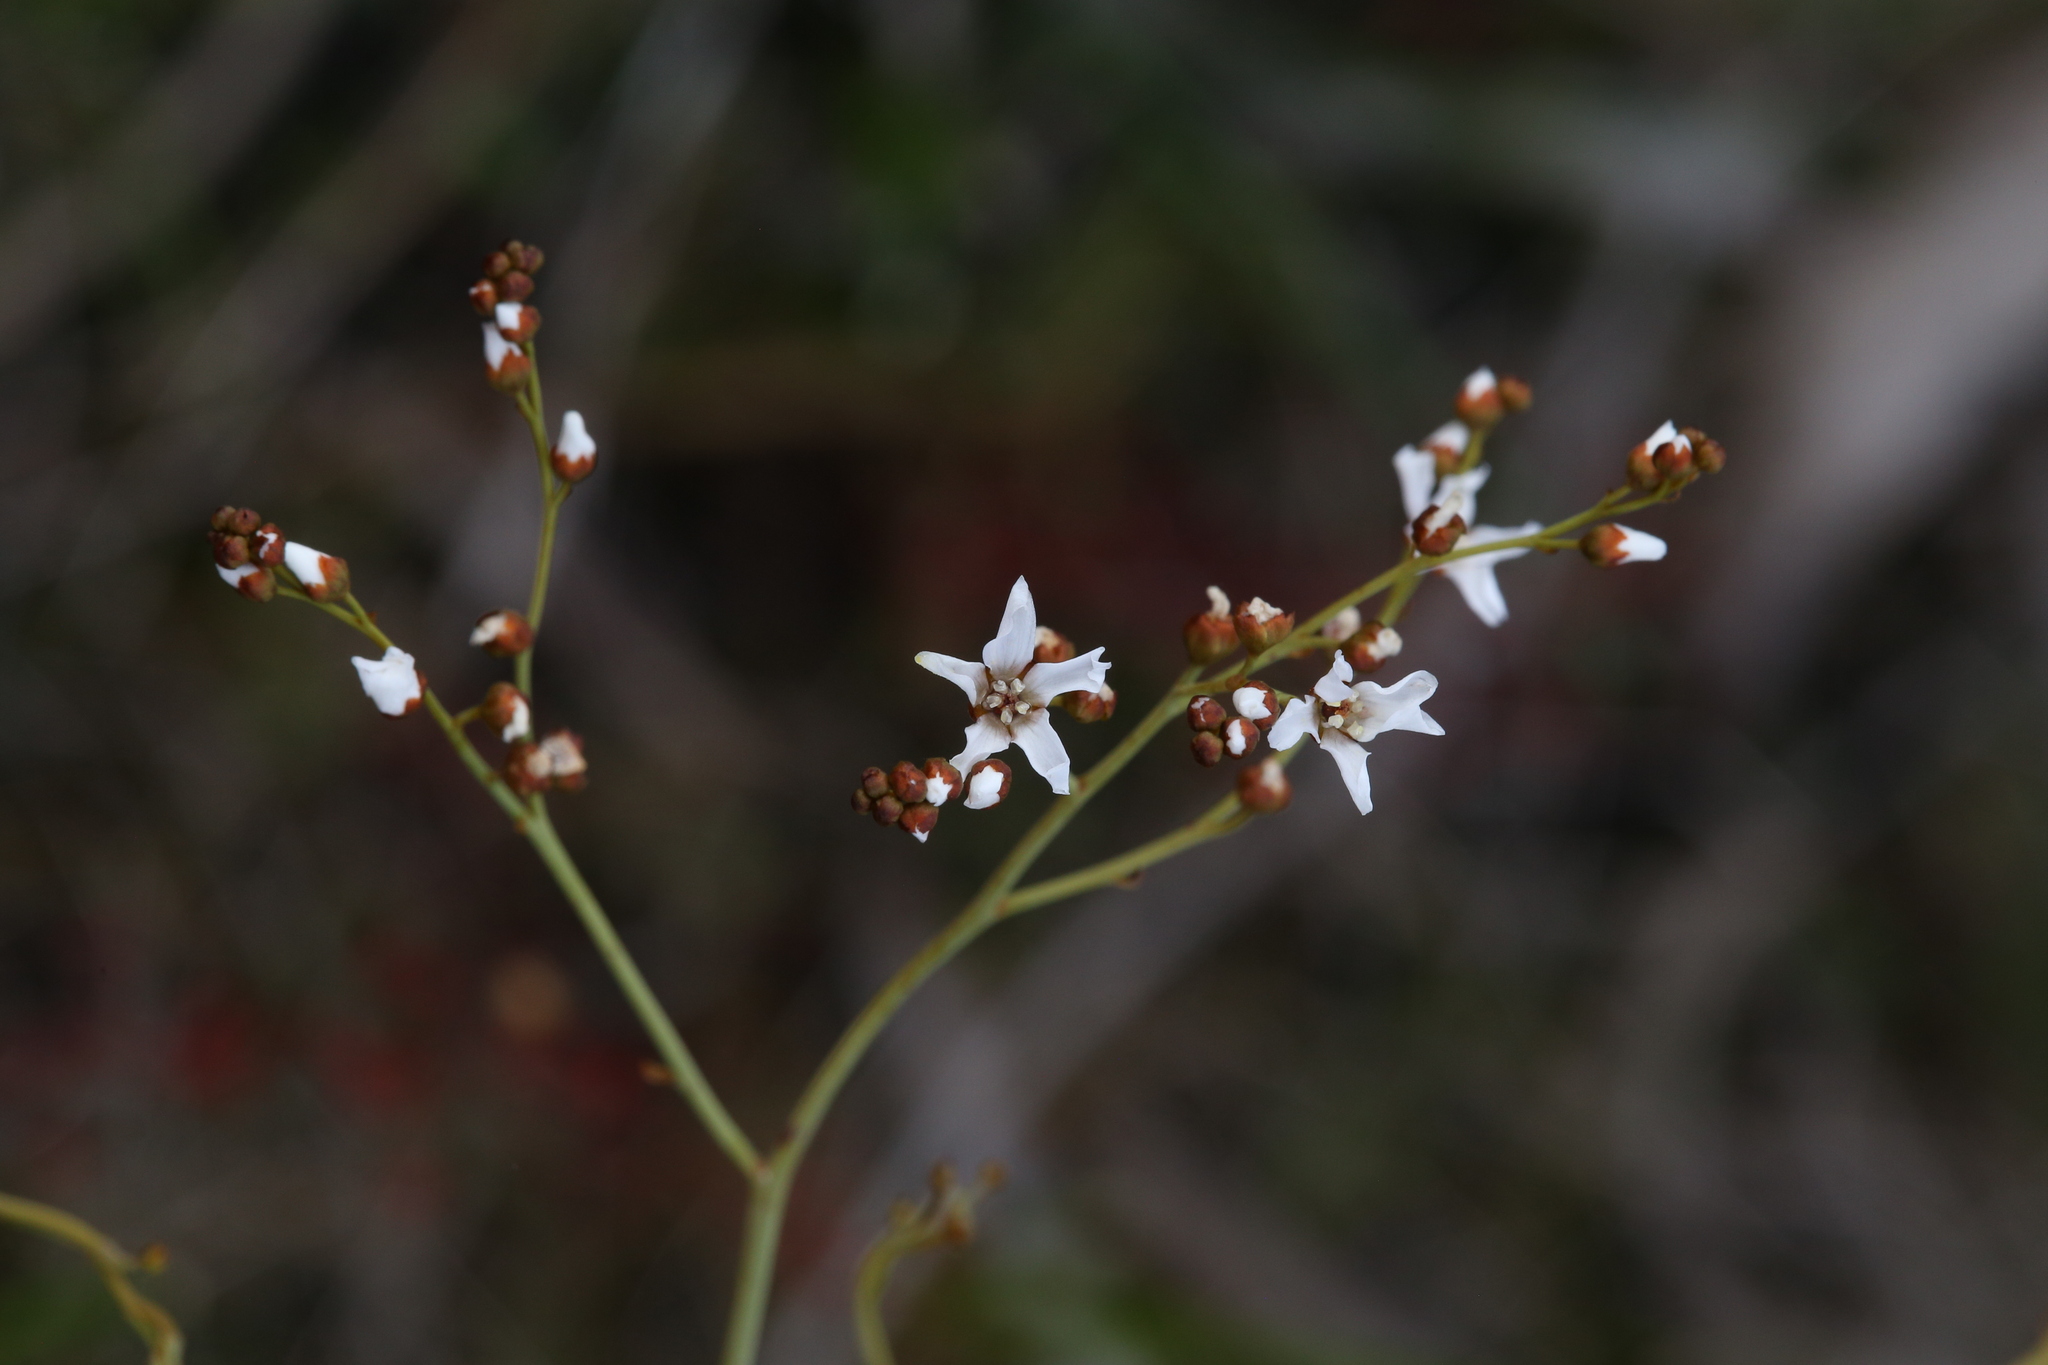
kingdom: Plantae
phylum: Tracheophyta
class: Magnoliopsida
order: Caryophyllales
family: Droseraceae
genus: Drosera
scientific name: Drosera gigantea
